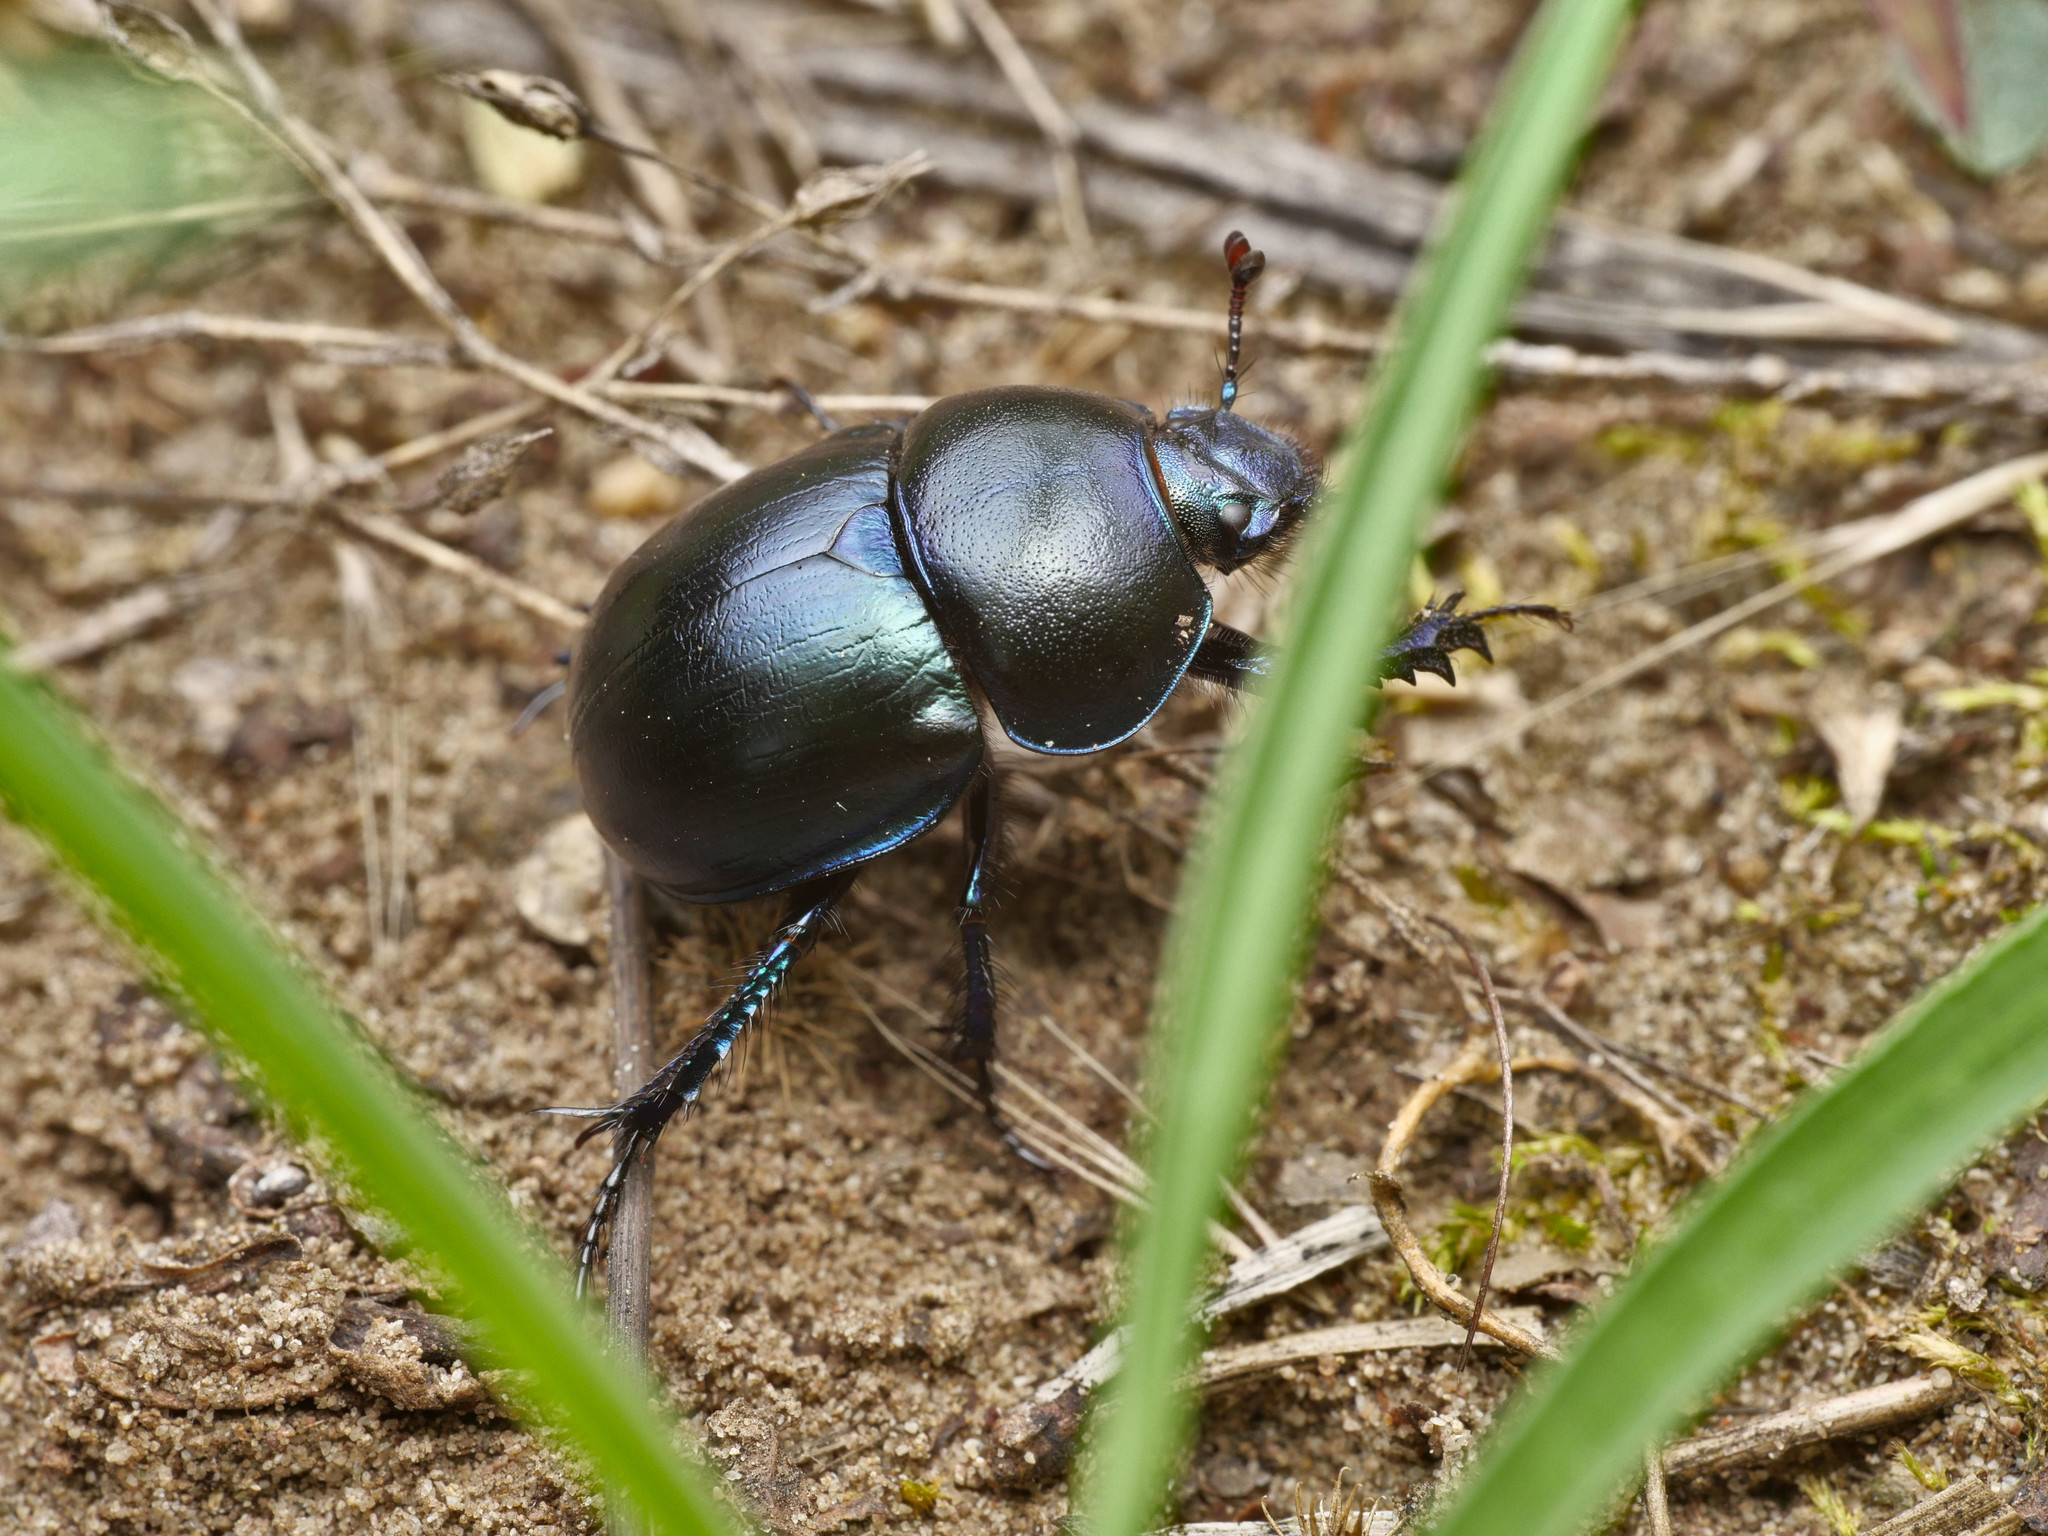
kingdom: Animalia
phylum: Arthropoda
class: Insecta
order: Coleoptera
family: Geotrupidae
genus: Trypocopris
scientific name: Trypocopris vernalis
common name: Spring dumbledor
